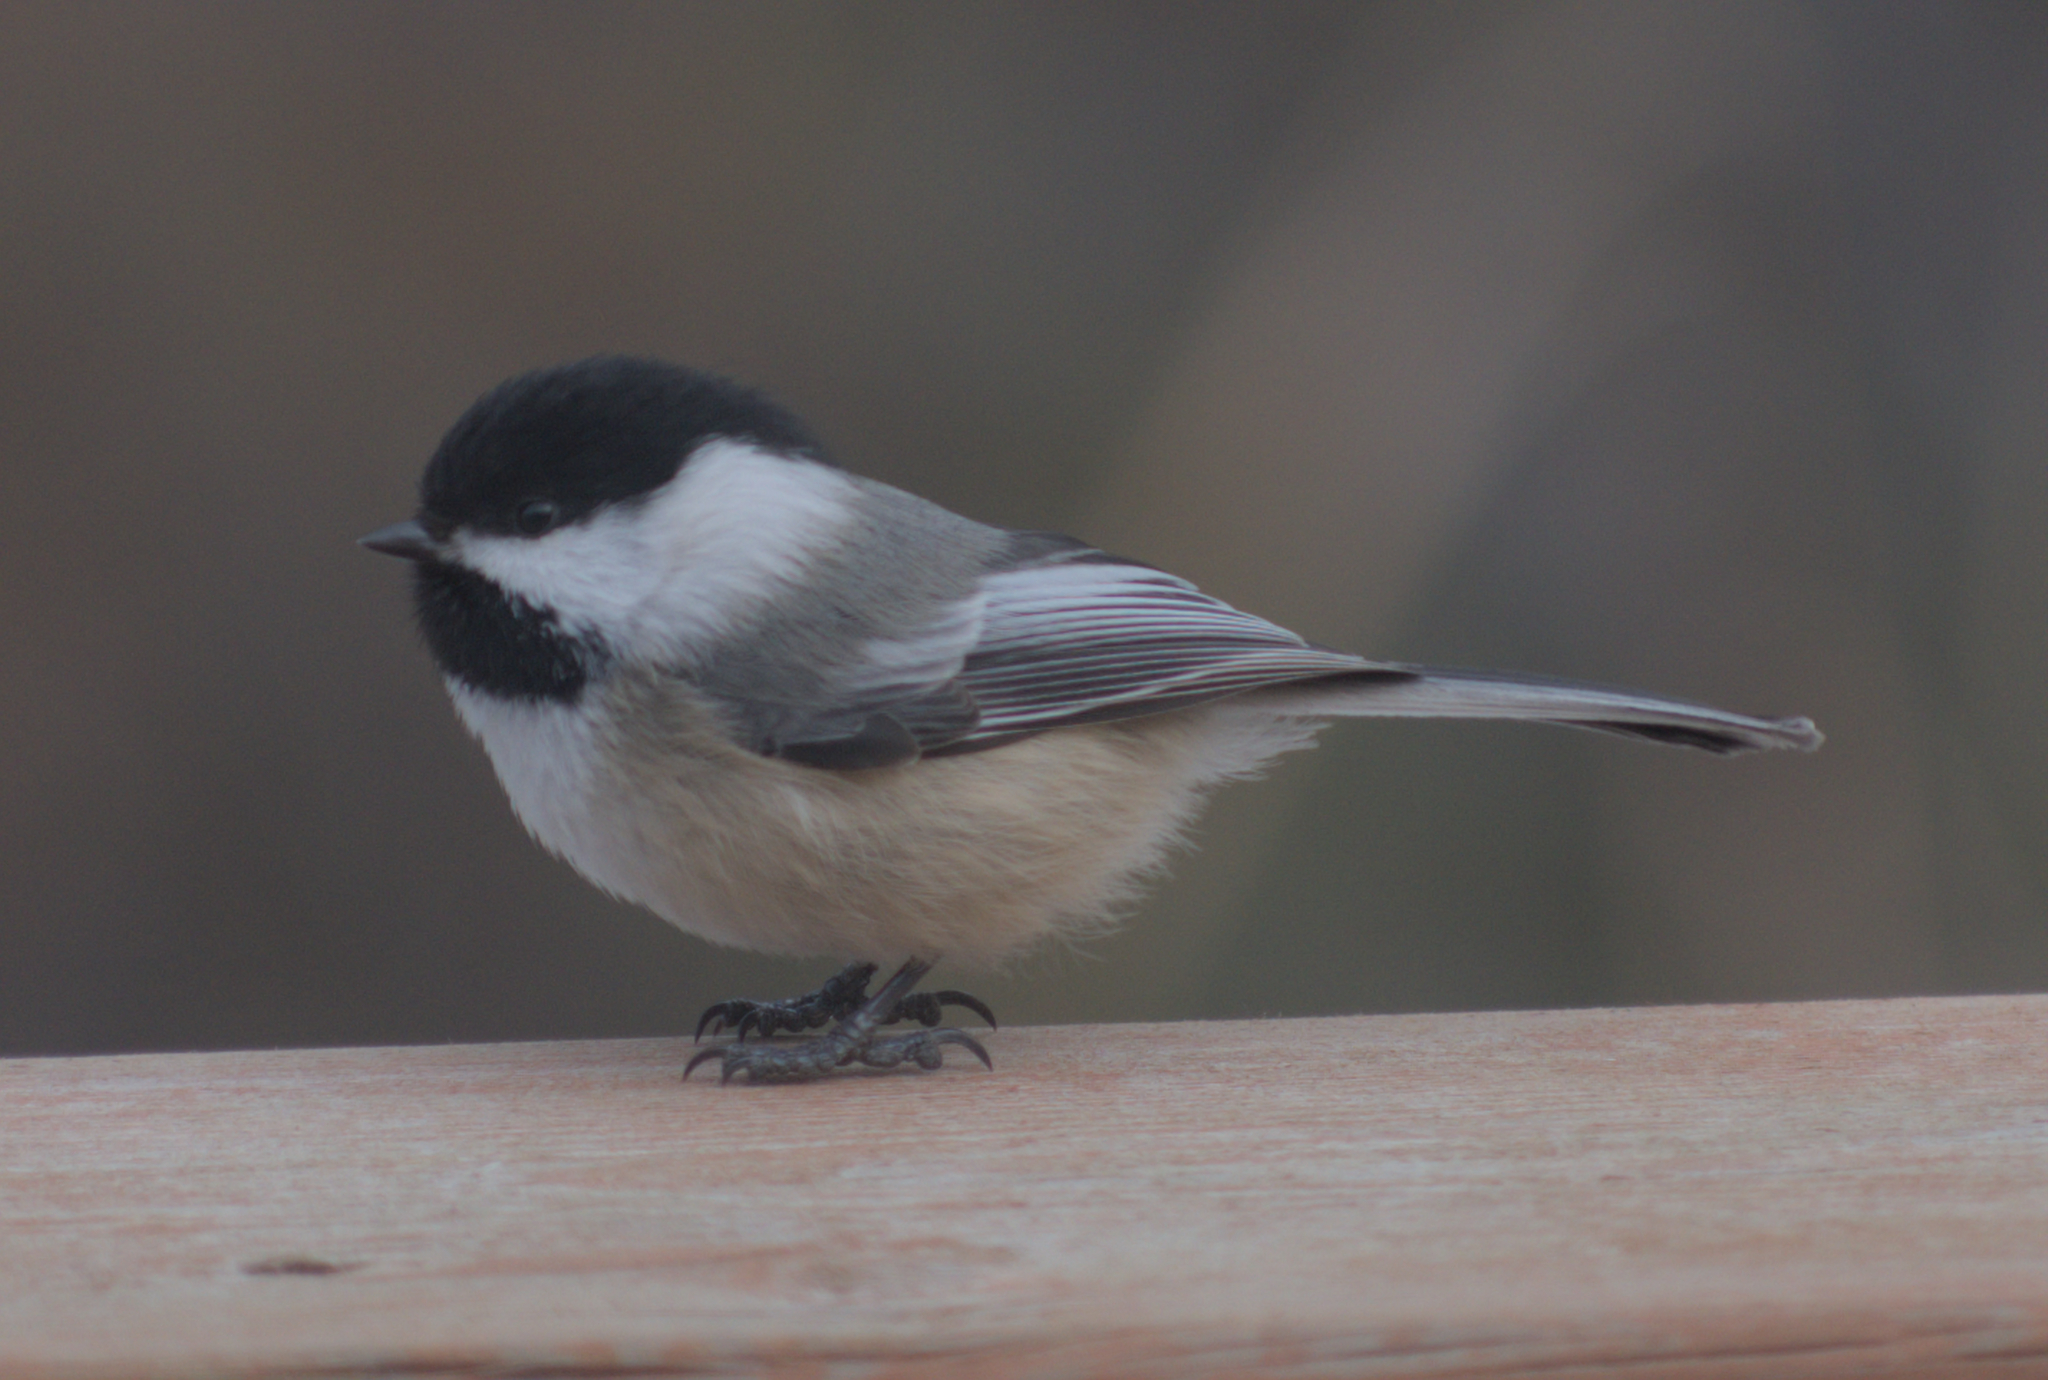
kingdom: Animalia
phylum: Chordata
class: Aves
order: Passeriformes
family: Paridae
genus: Poecile
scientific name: Poecile atricapillus
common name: Black-capped chickadee
